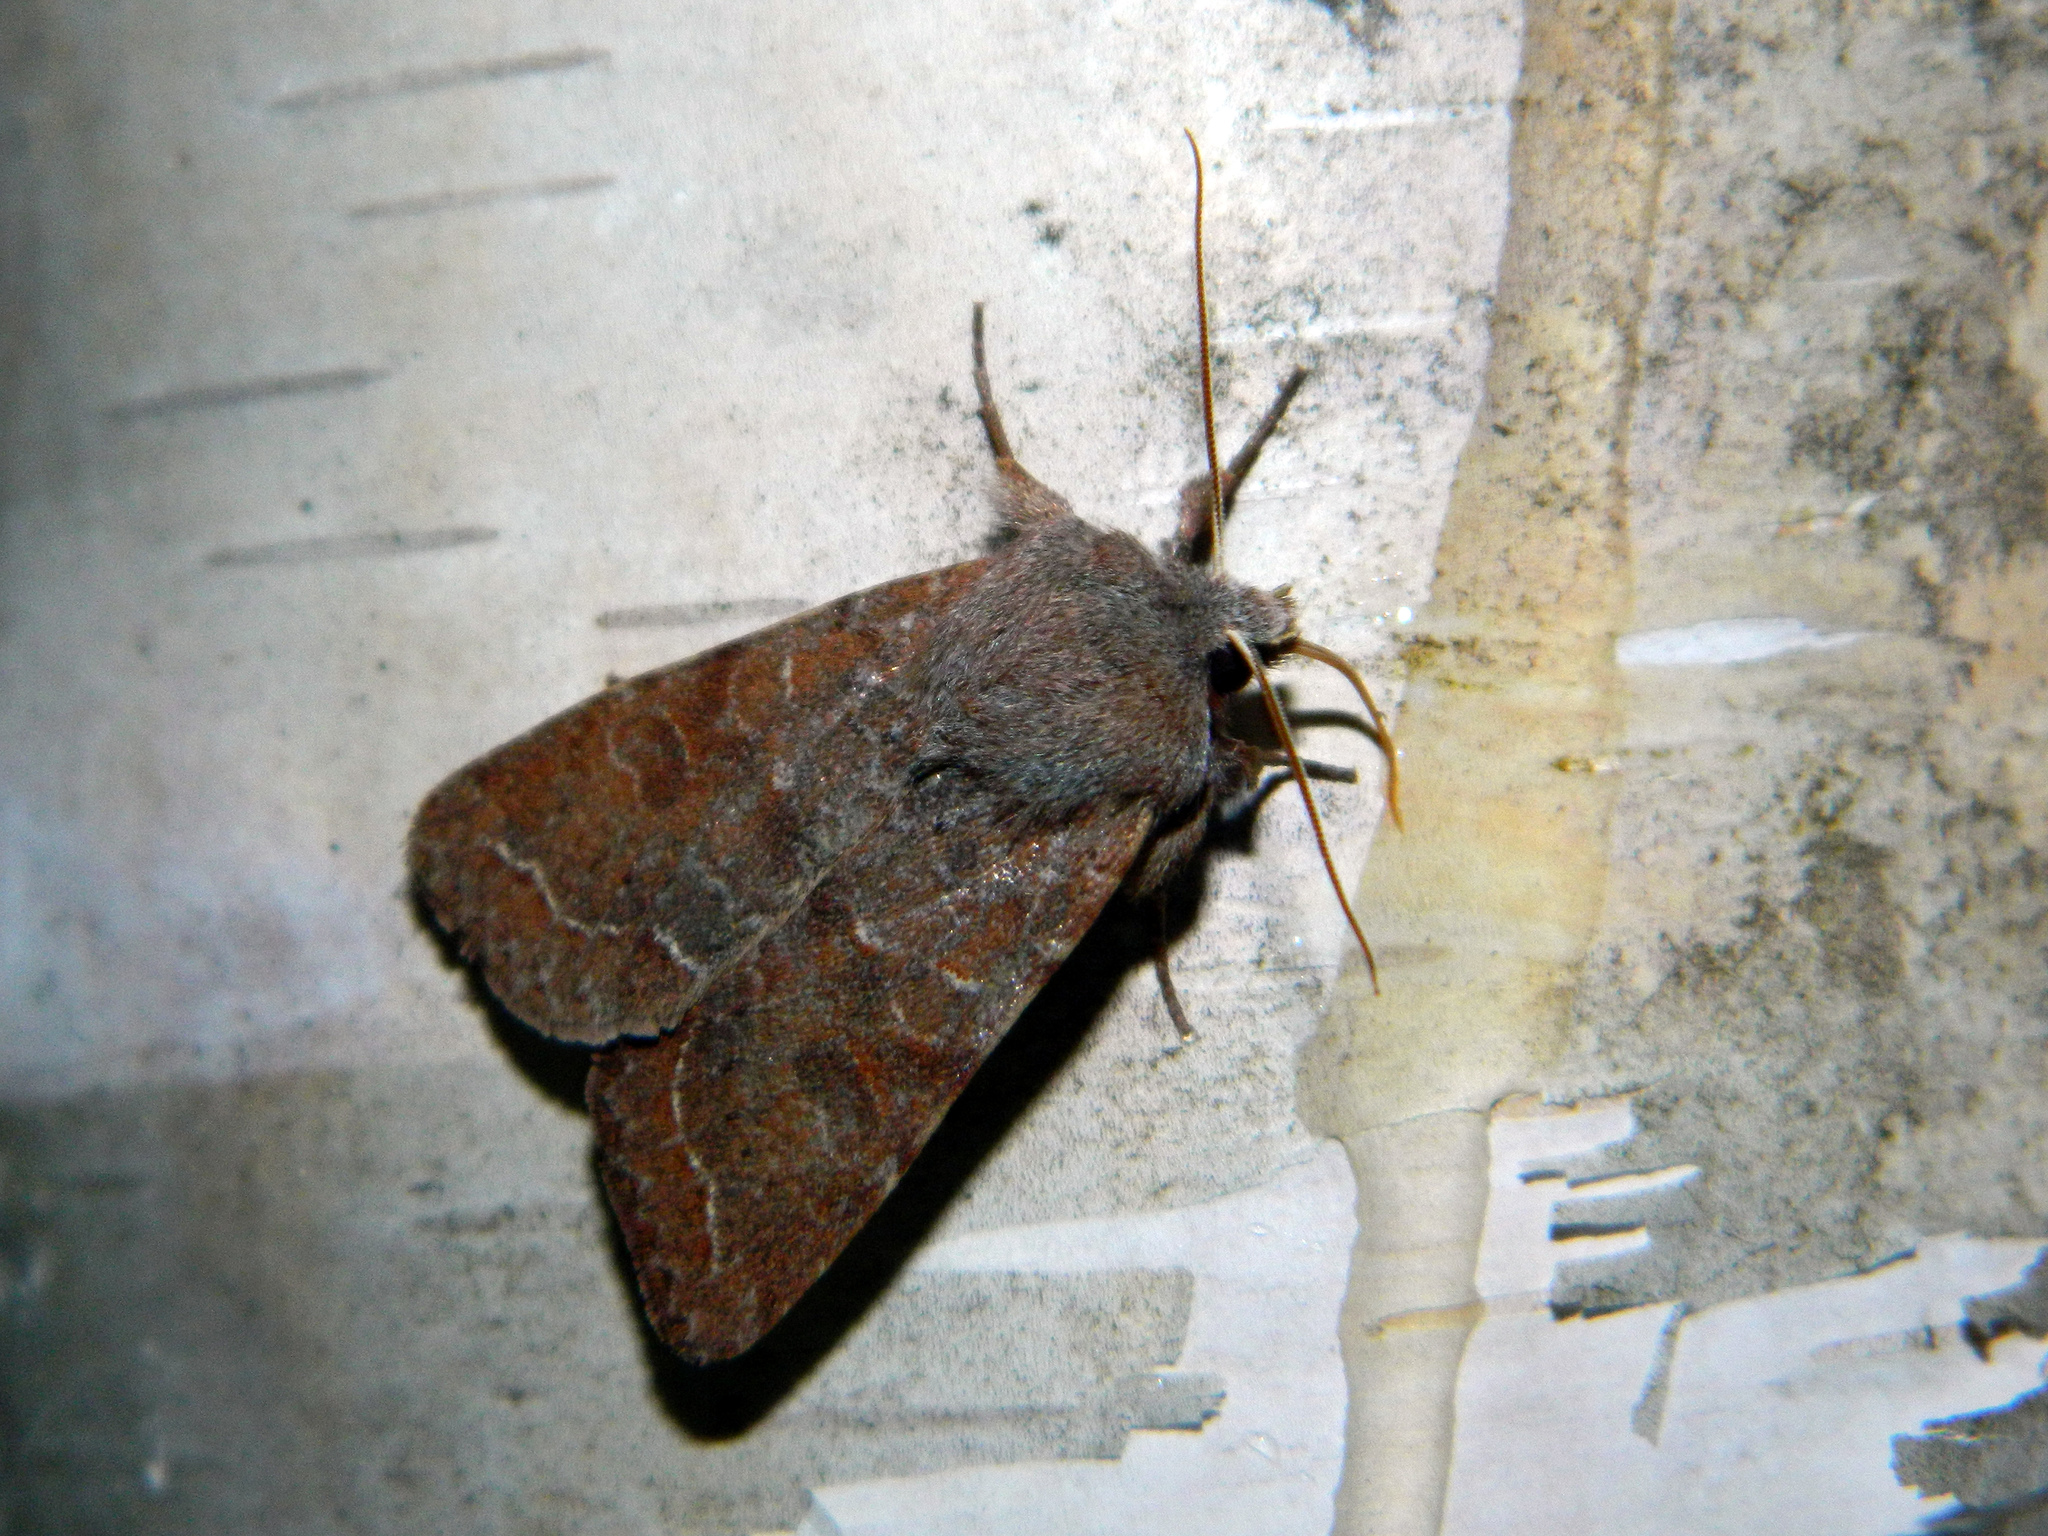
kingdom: Animalia
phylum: Arthropoda
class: Insecta
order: Lepidoptera
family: Noctuidae
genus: Orthosia
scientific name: Orthosia revicta
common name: Rusty whitesided caterpillar
